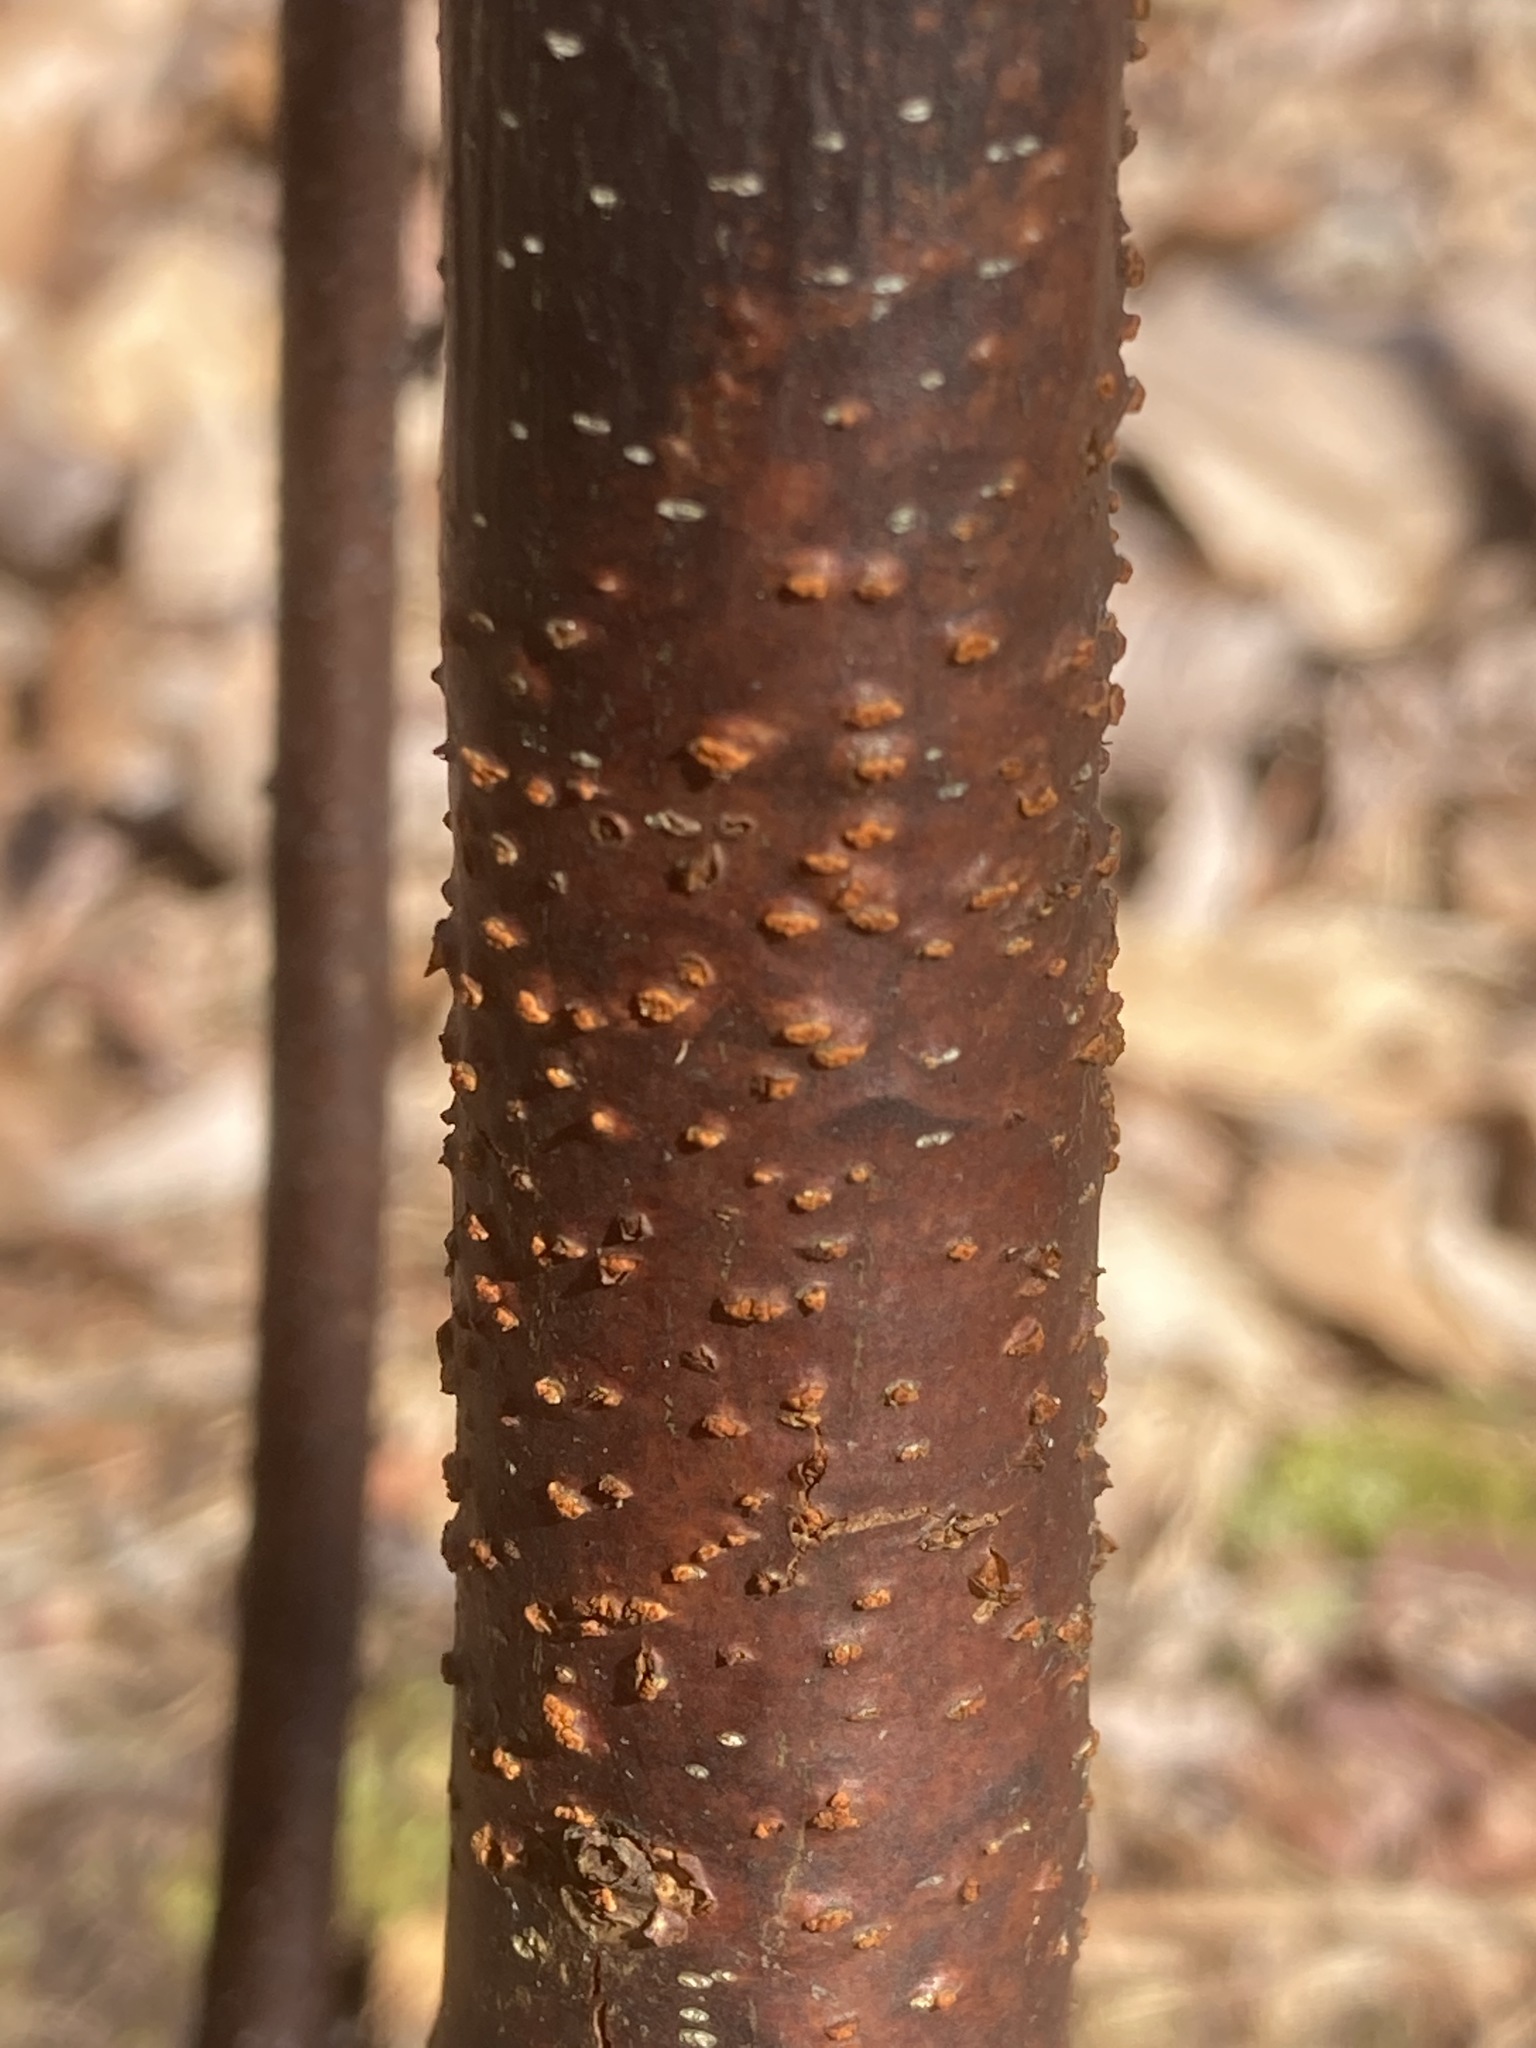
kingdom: Plantae
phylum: Tracheophyta
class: Magnoliopsida
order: Fagales
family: Fagaceae
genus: Castanea
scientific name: Castanea dentata
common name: American chestnut
